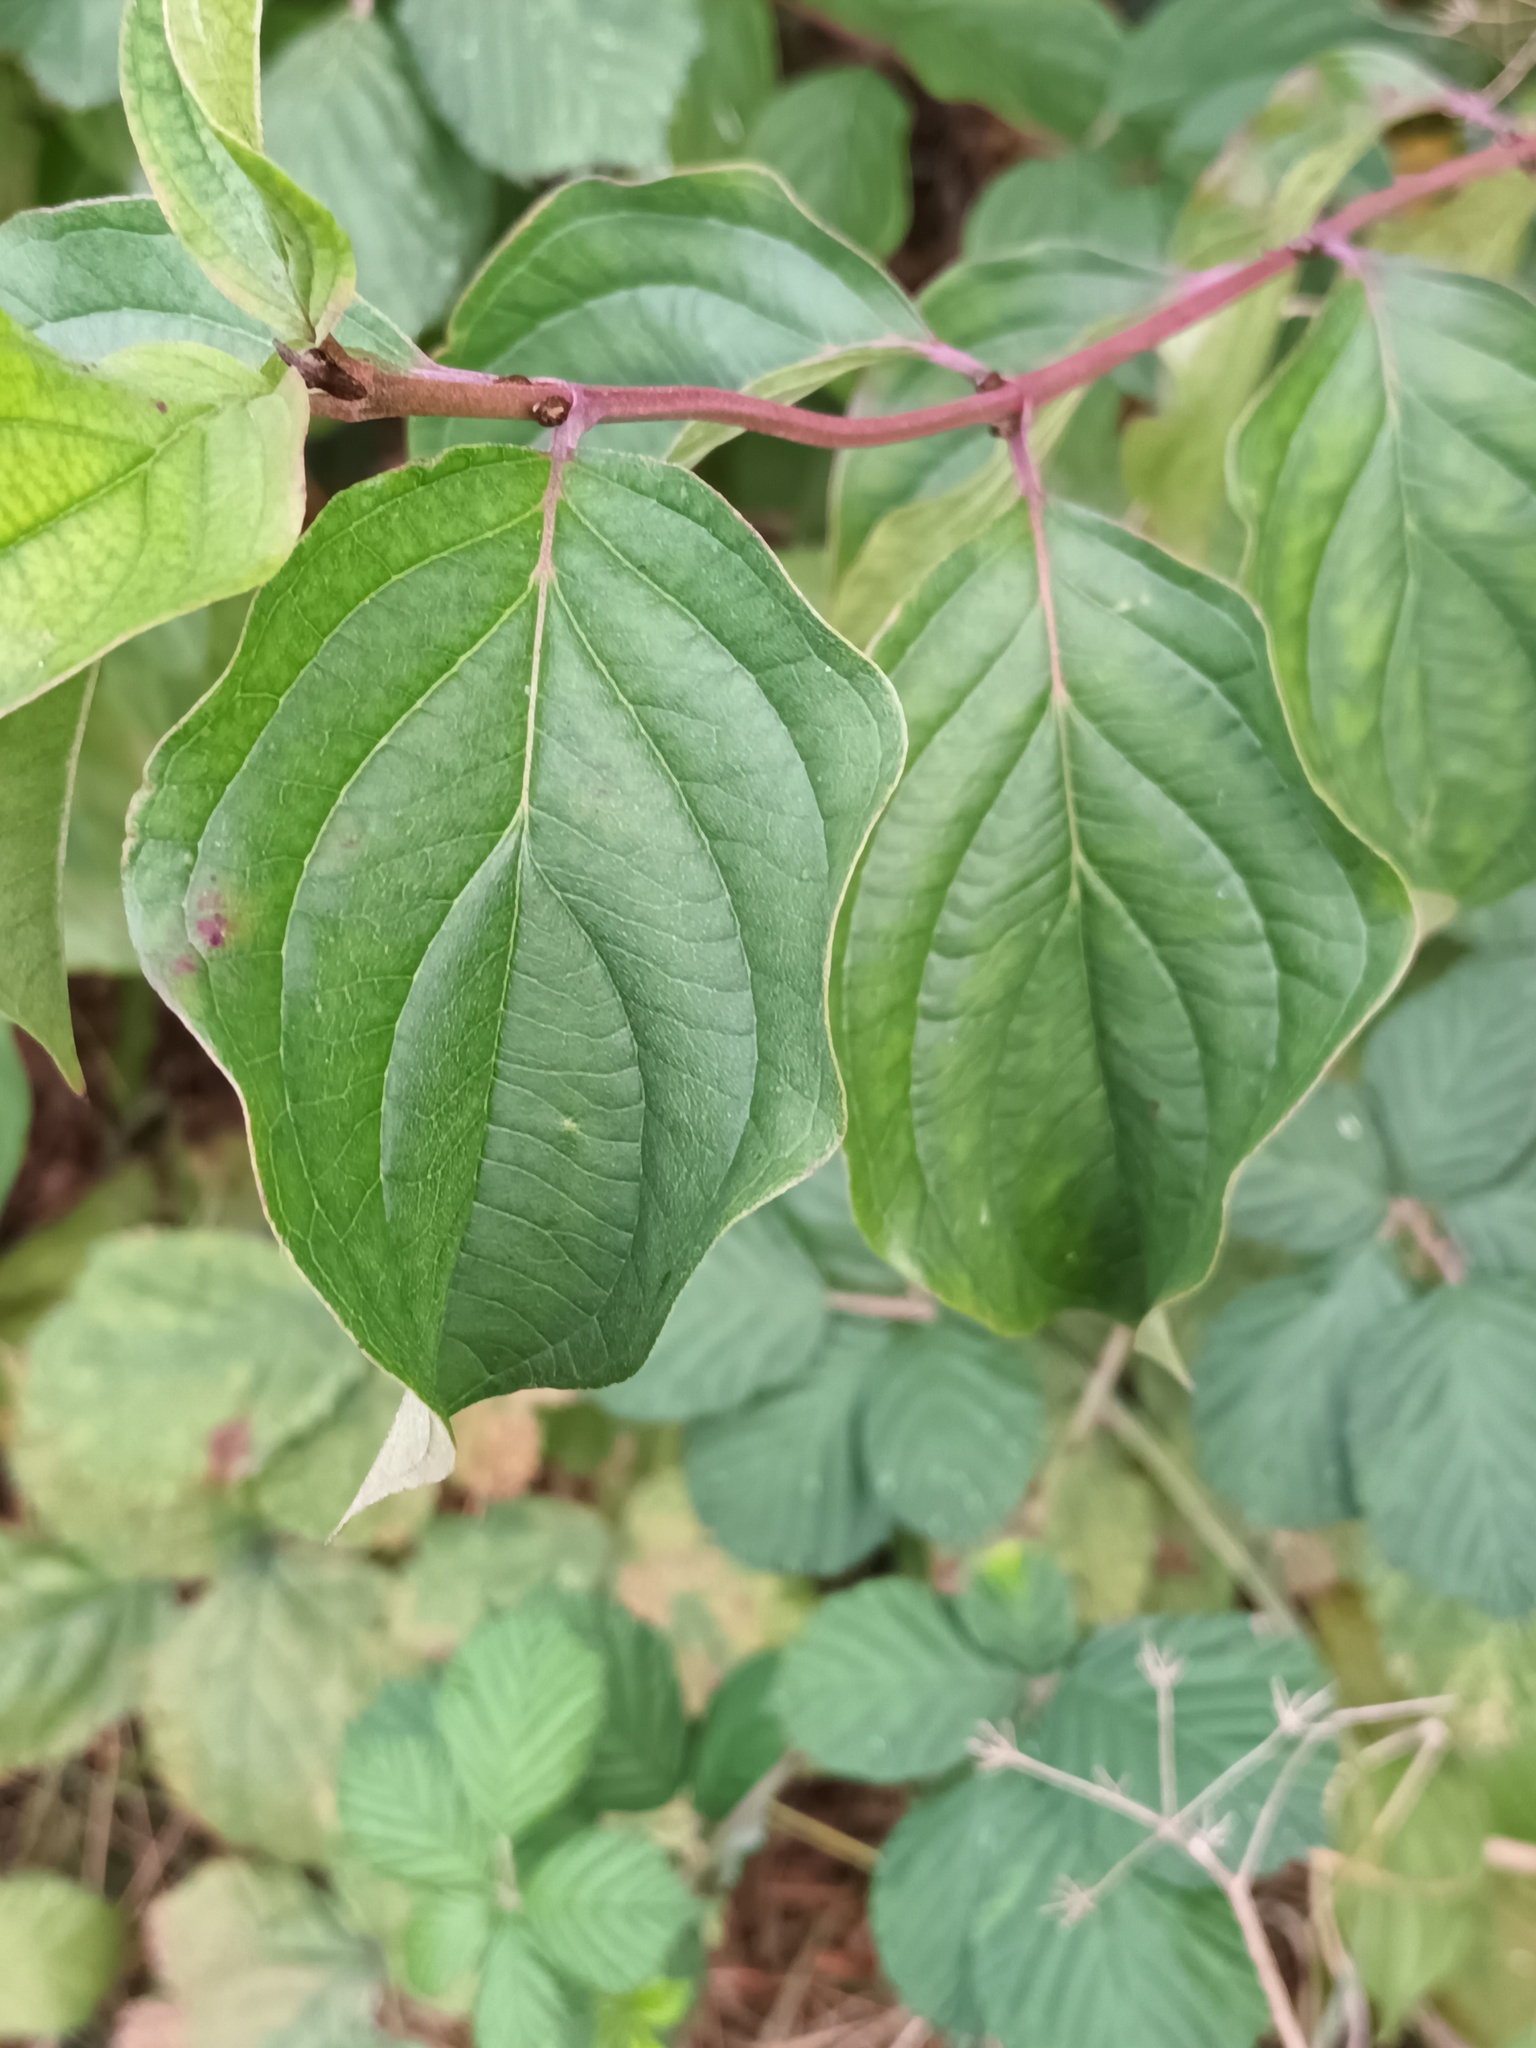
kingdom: Plantae
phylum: Tracheophyta
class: Magnoliopsida
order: Cornales
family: Cornaceae
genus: Cornus
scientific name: Cornus sanguinea
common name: Dogwood
